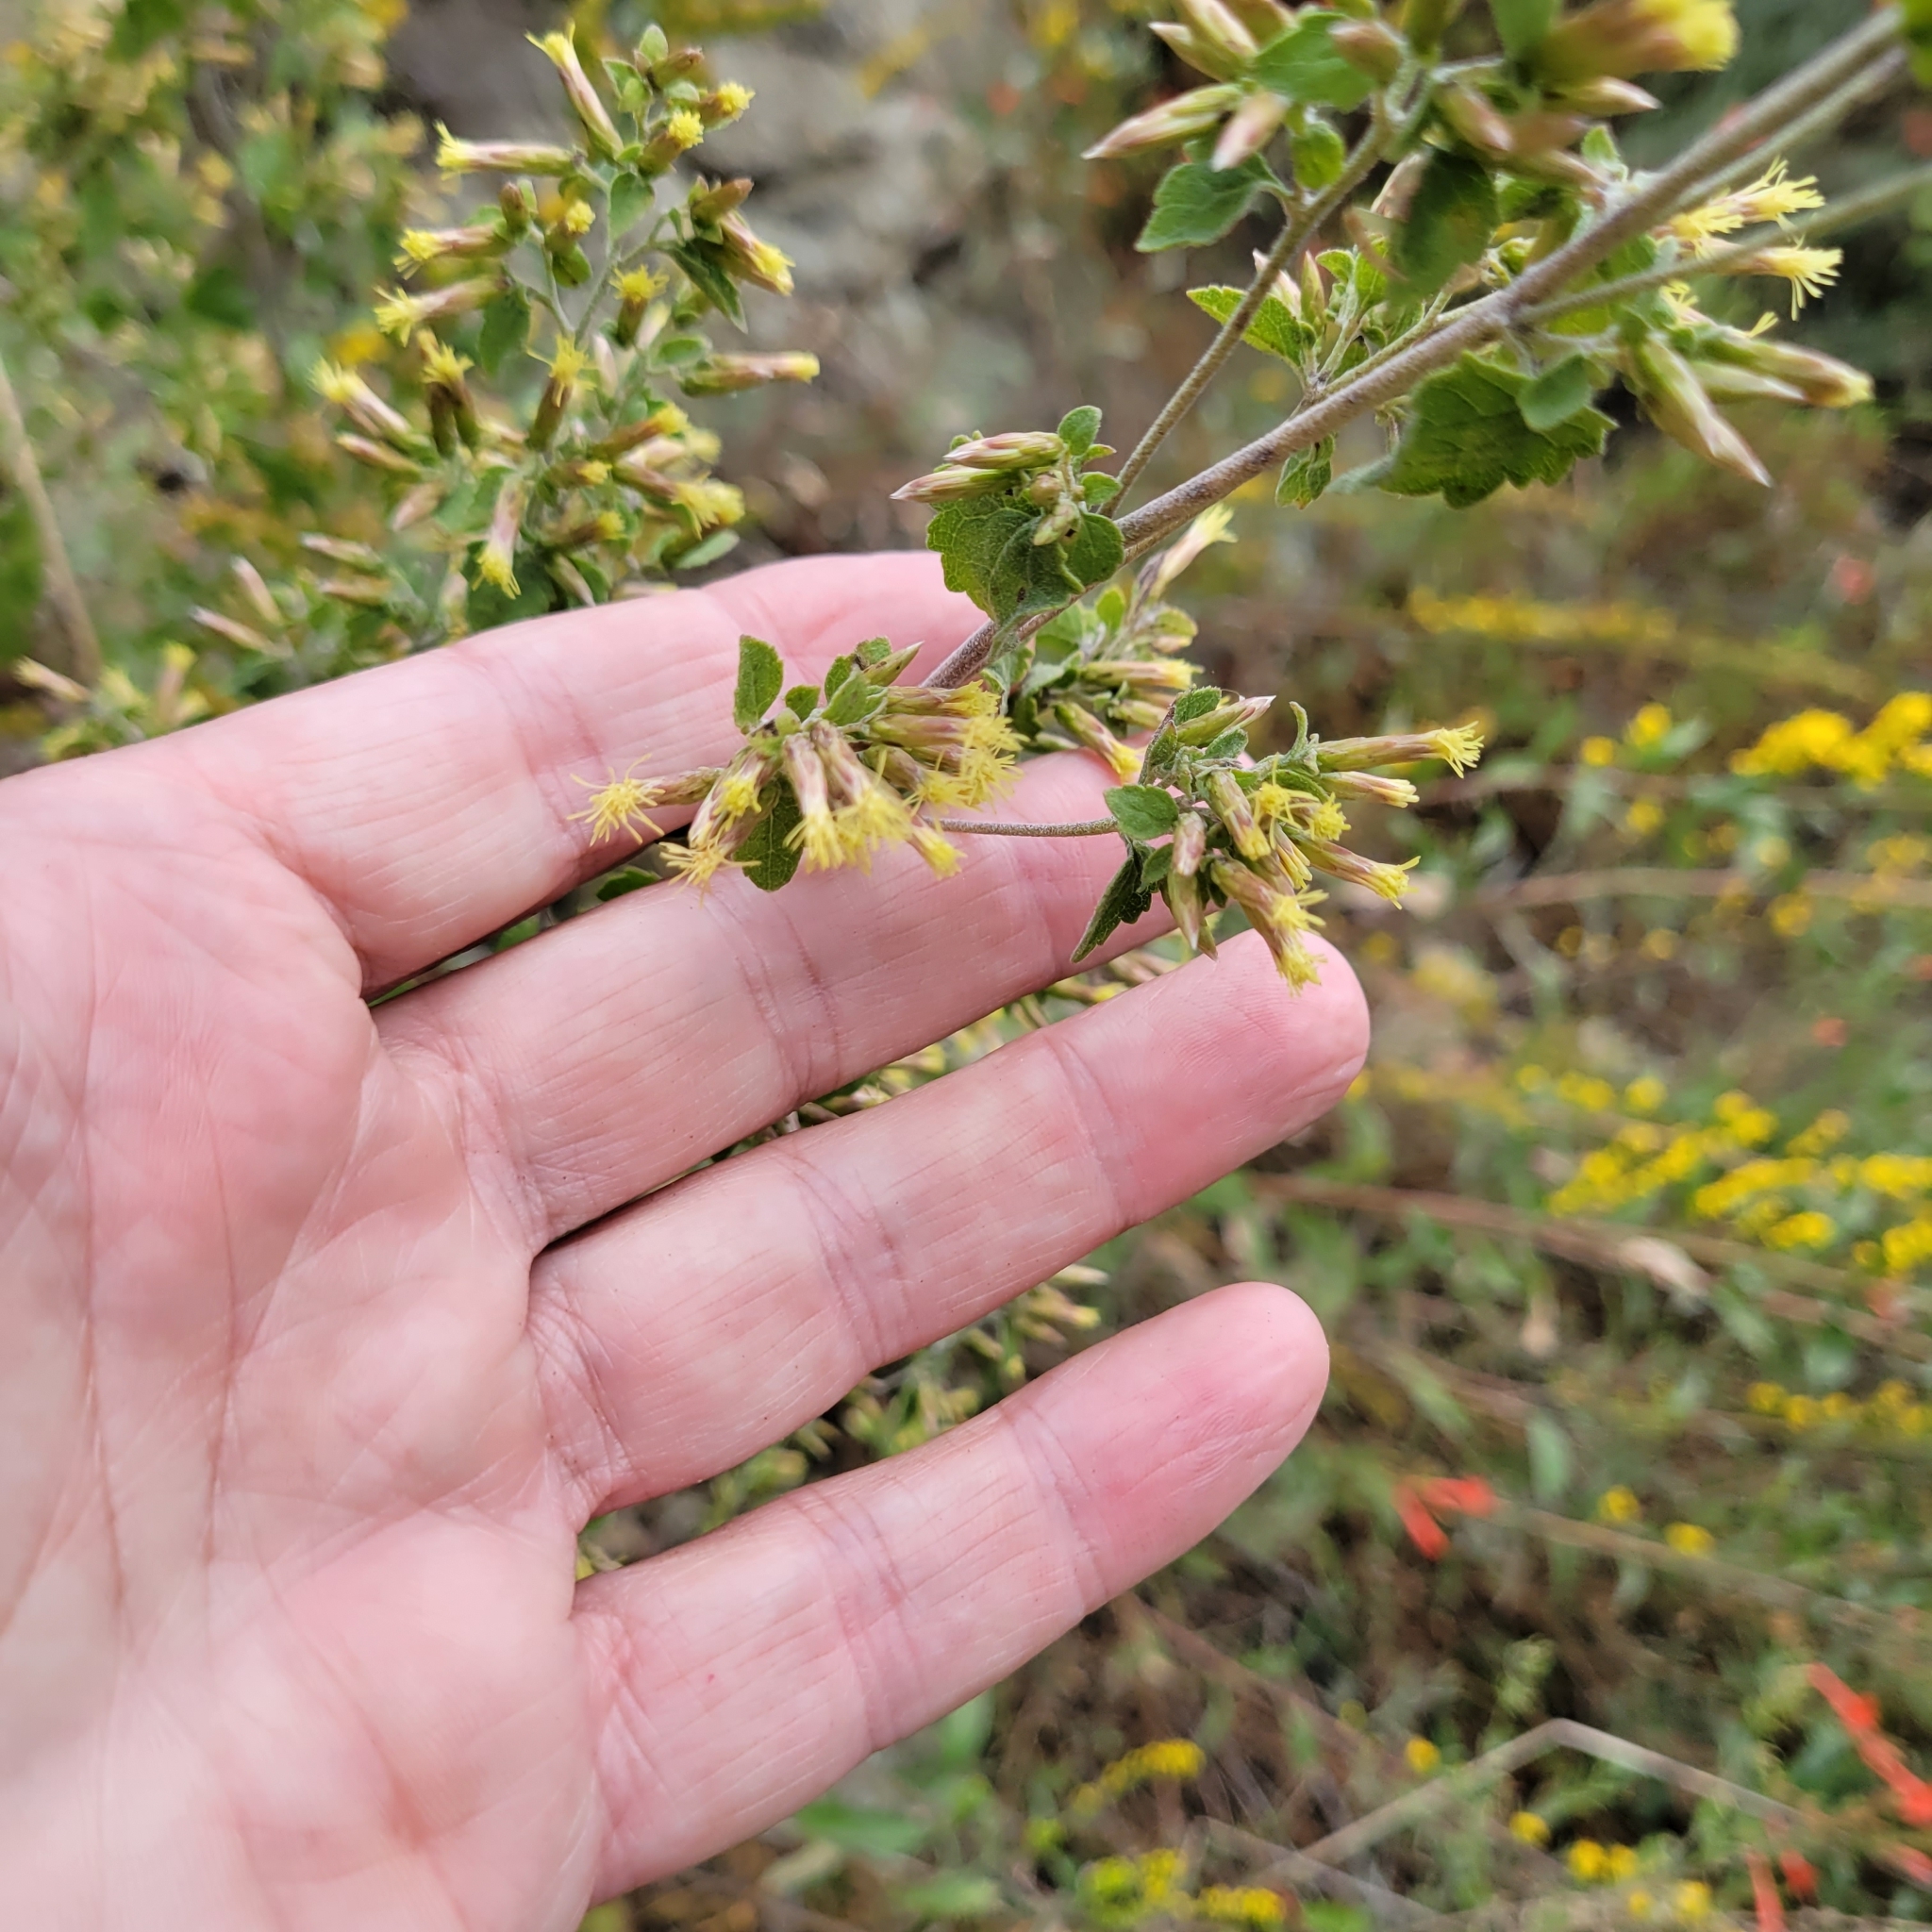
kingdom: Plantae
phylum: Tracheophyta
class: Magnoliopsida
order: Asterales
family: Asteraceae
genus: Brickellia
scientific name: Brickellia californica
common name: California brickellbush
